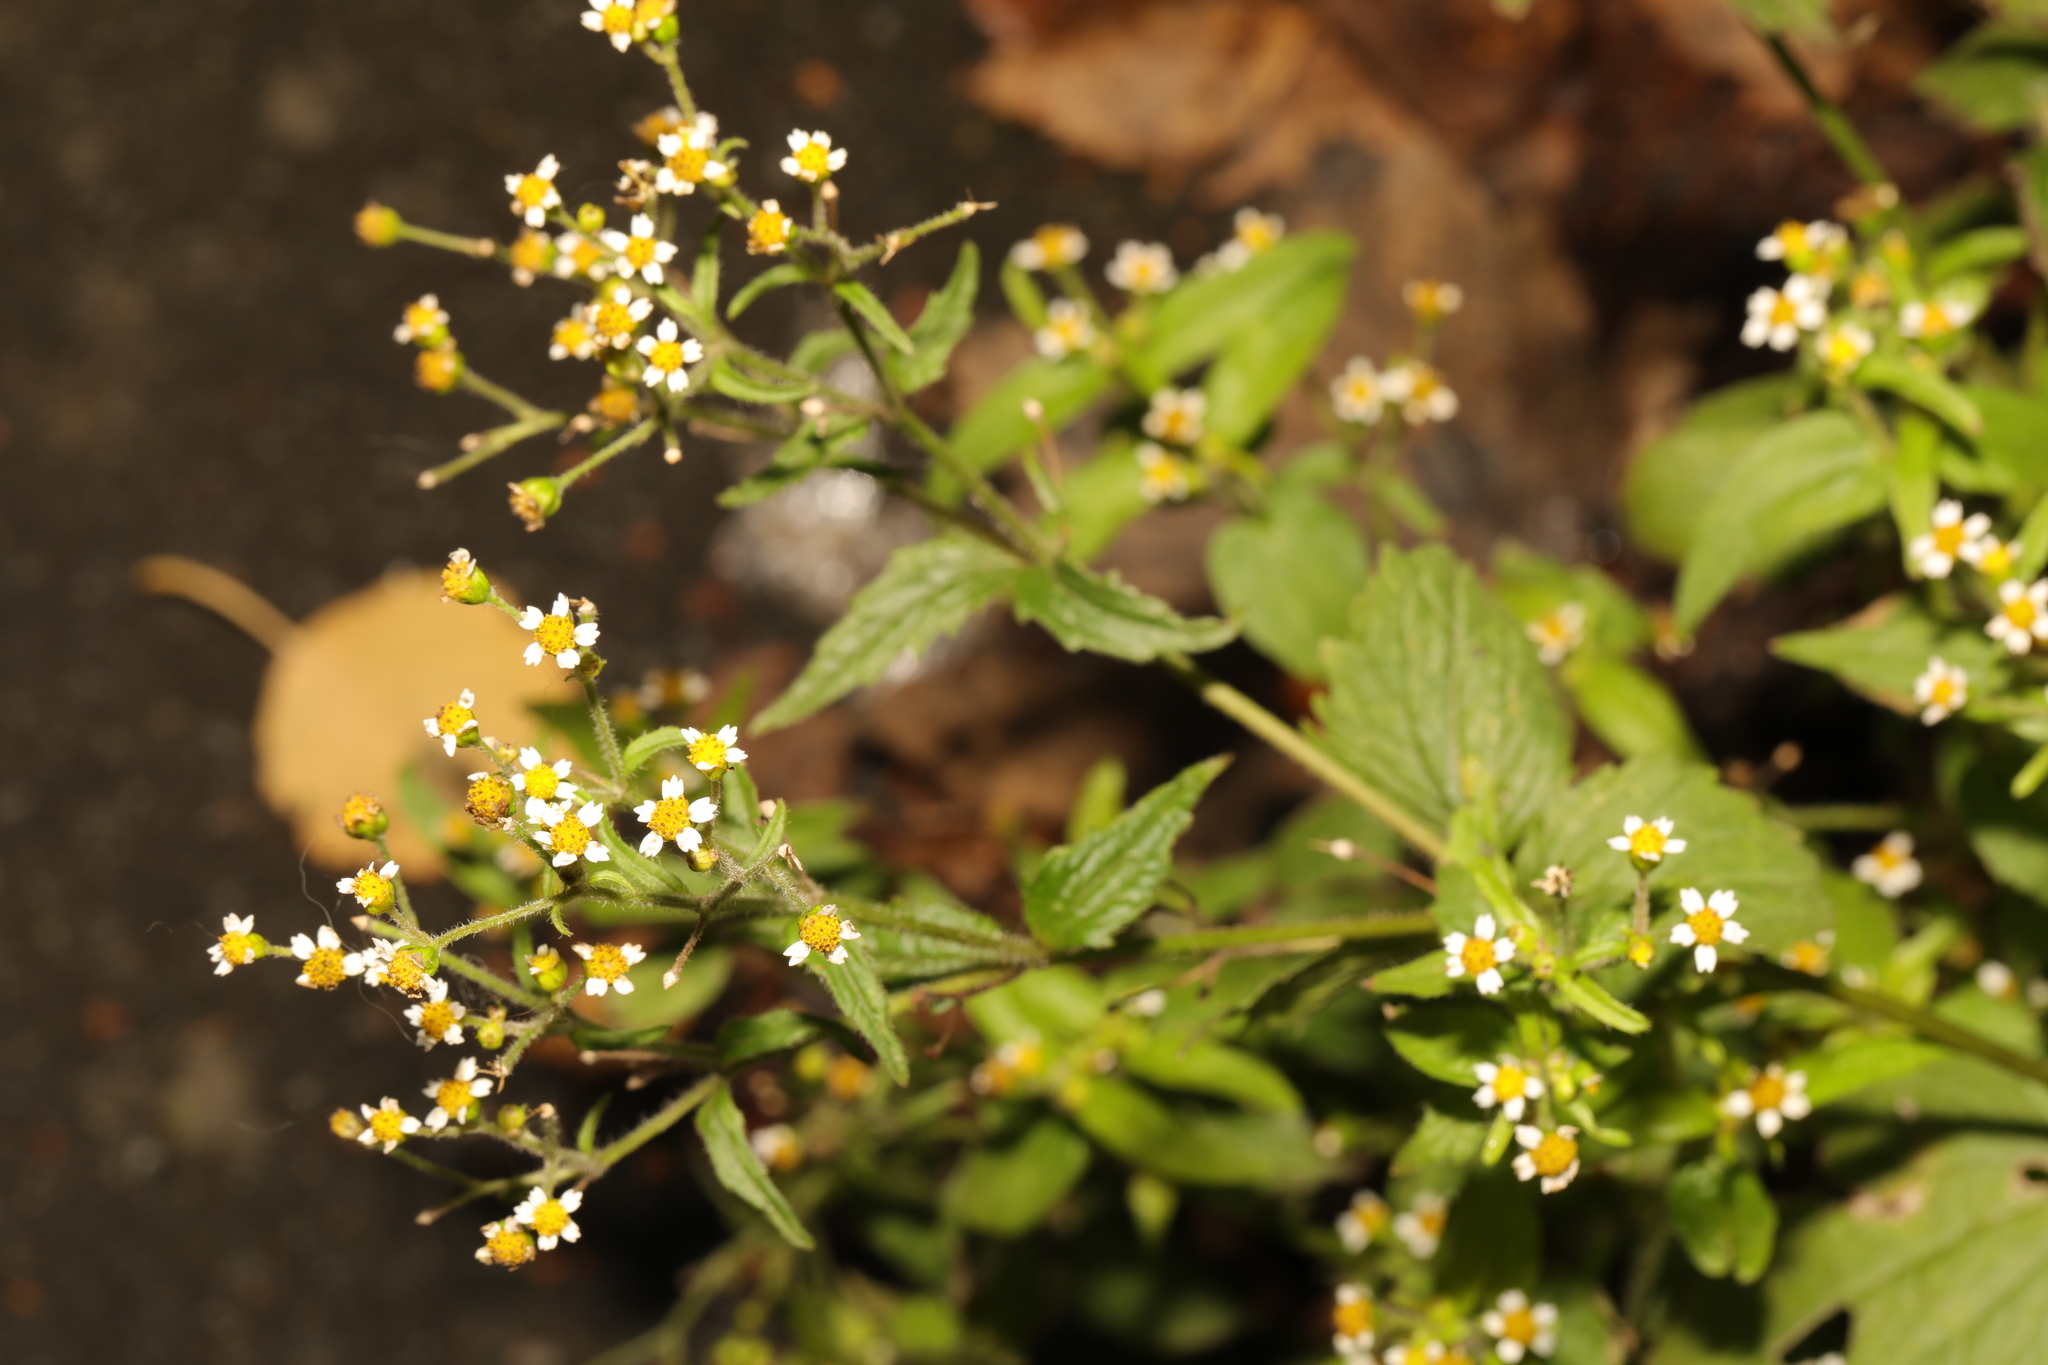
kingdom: Plantae
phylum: Tracheophyta
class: Magnoliopsida
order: Asterales
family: Asteraceae
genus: Galinsoga
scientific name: Galinsoga quadriradiata
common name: Shaggy soldier
